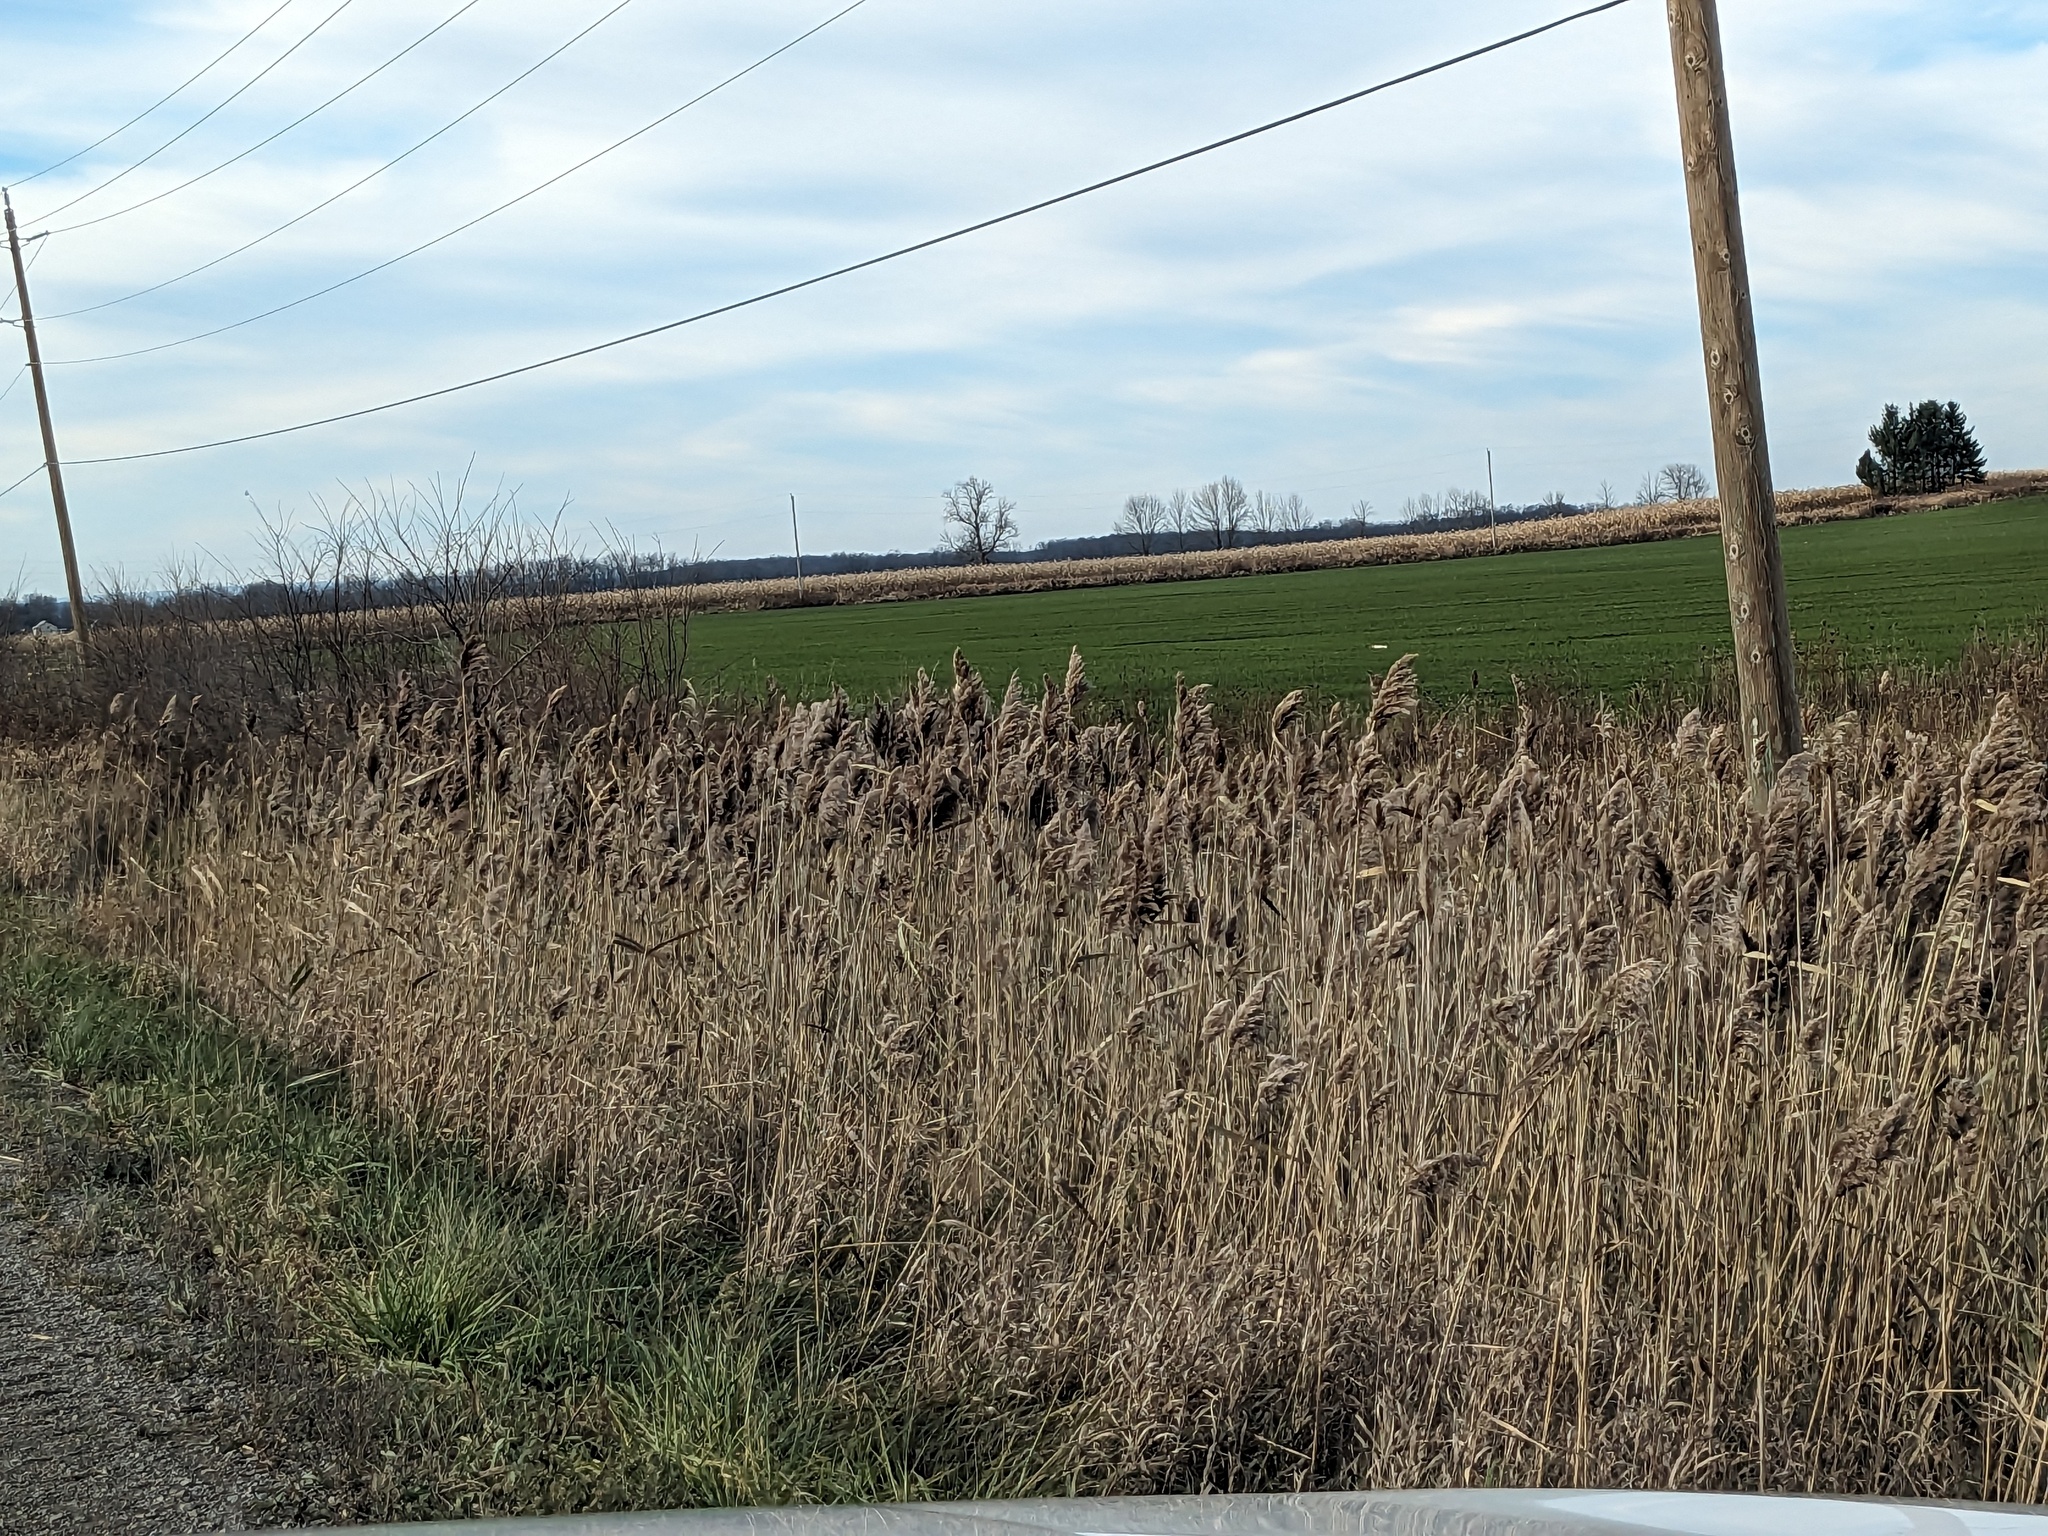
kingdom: Plantae
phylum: Tracheophyta
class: Liliopsida
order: Poales
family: Poaceae
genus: Phragmites
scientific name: Phragmites australis
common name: Common reed
